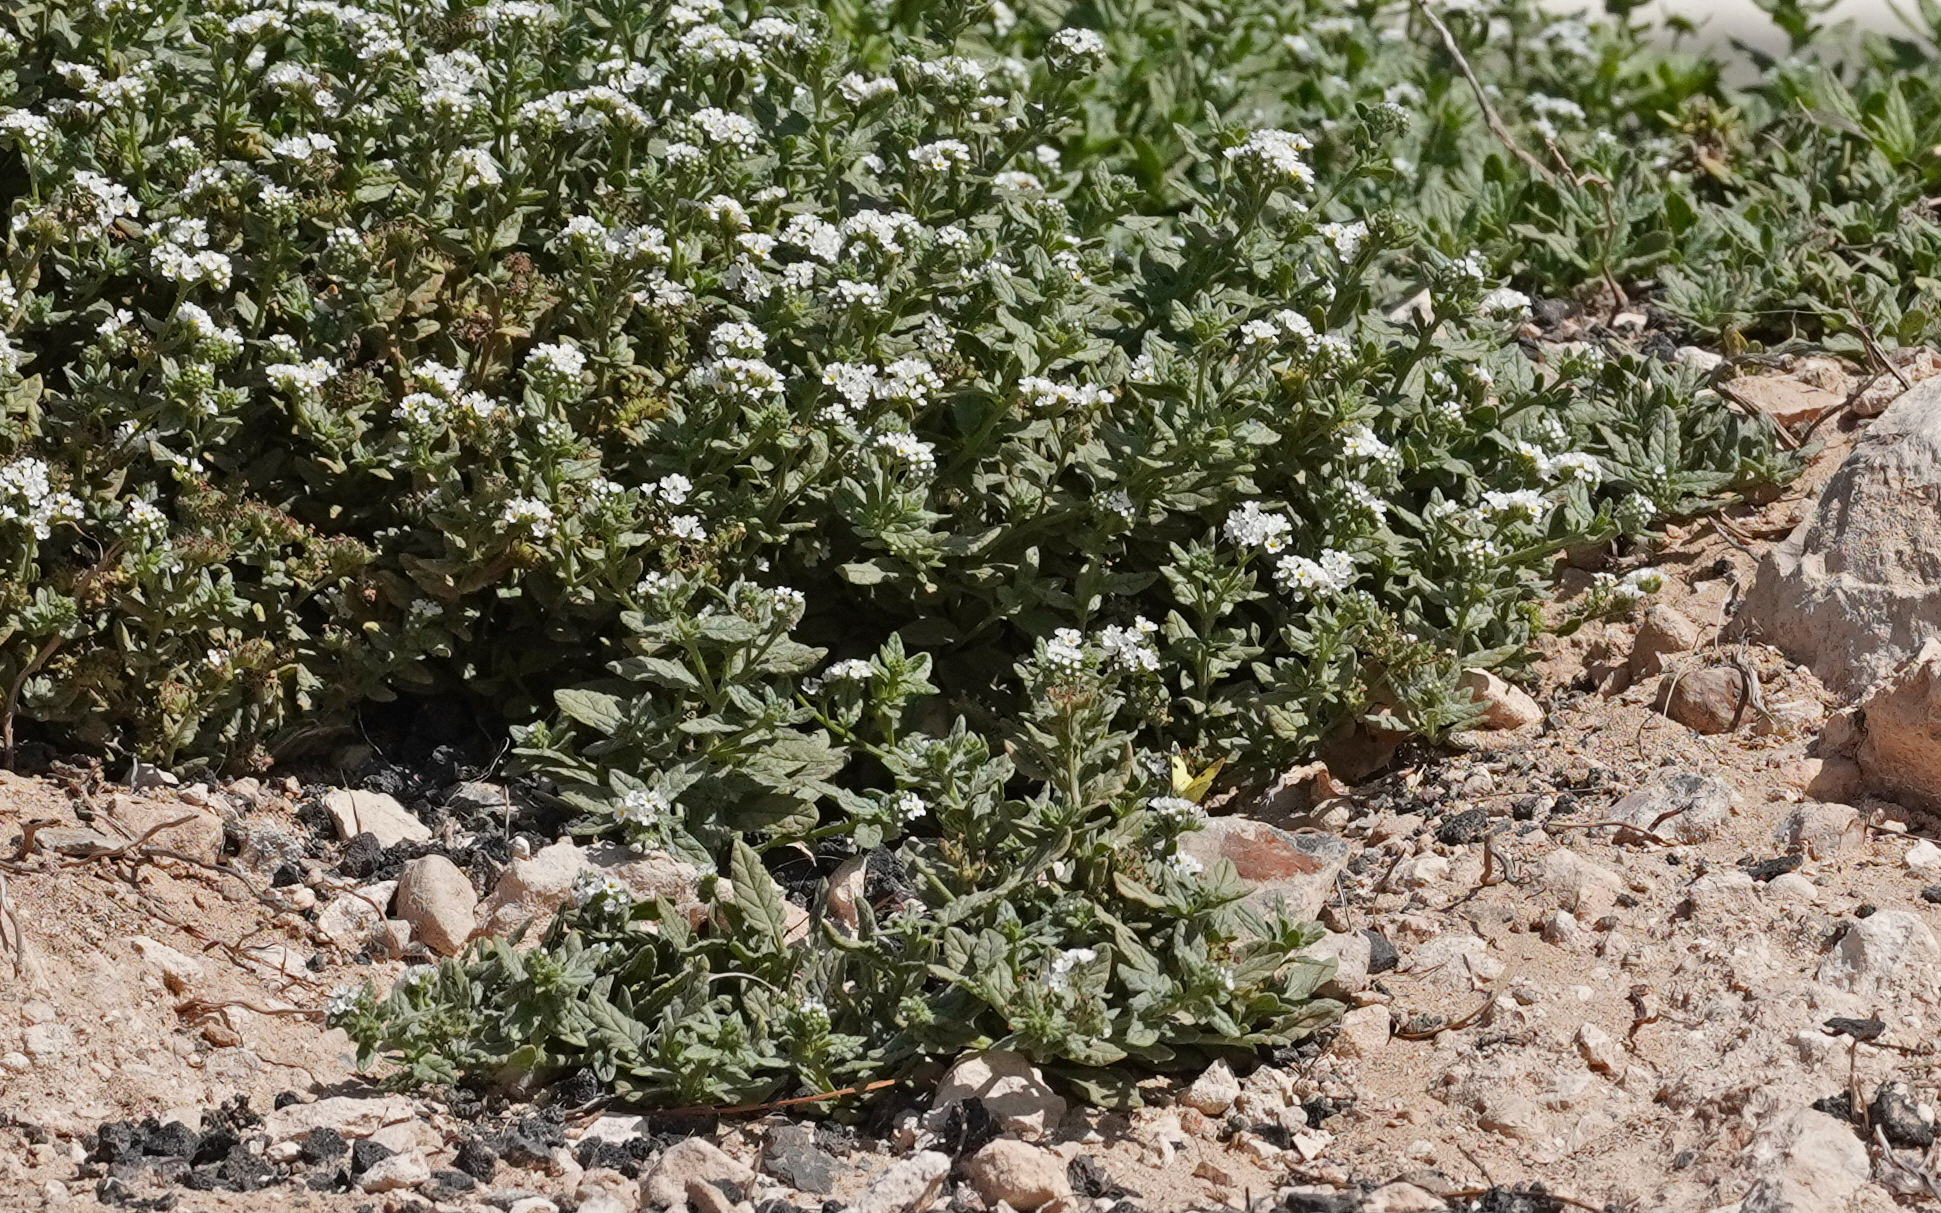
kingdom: Animalia
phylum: Arthropoda
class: Insecta
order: Lepidoptera
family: Pieridae
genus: Elphinstonia
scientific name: Elphinstonia charlonia
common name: Greenish black-tip
